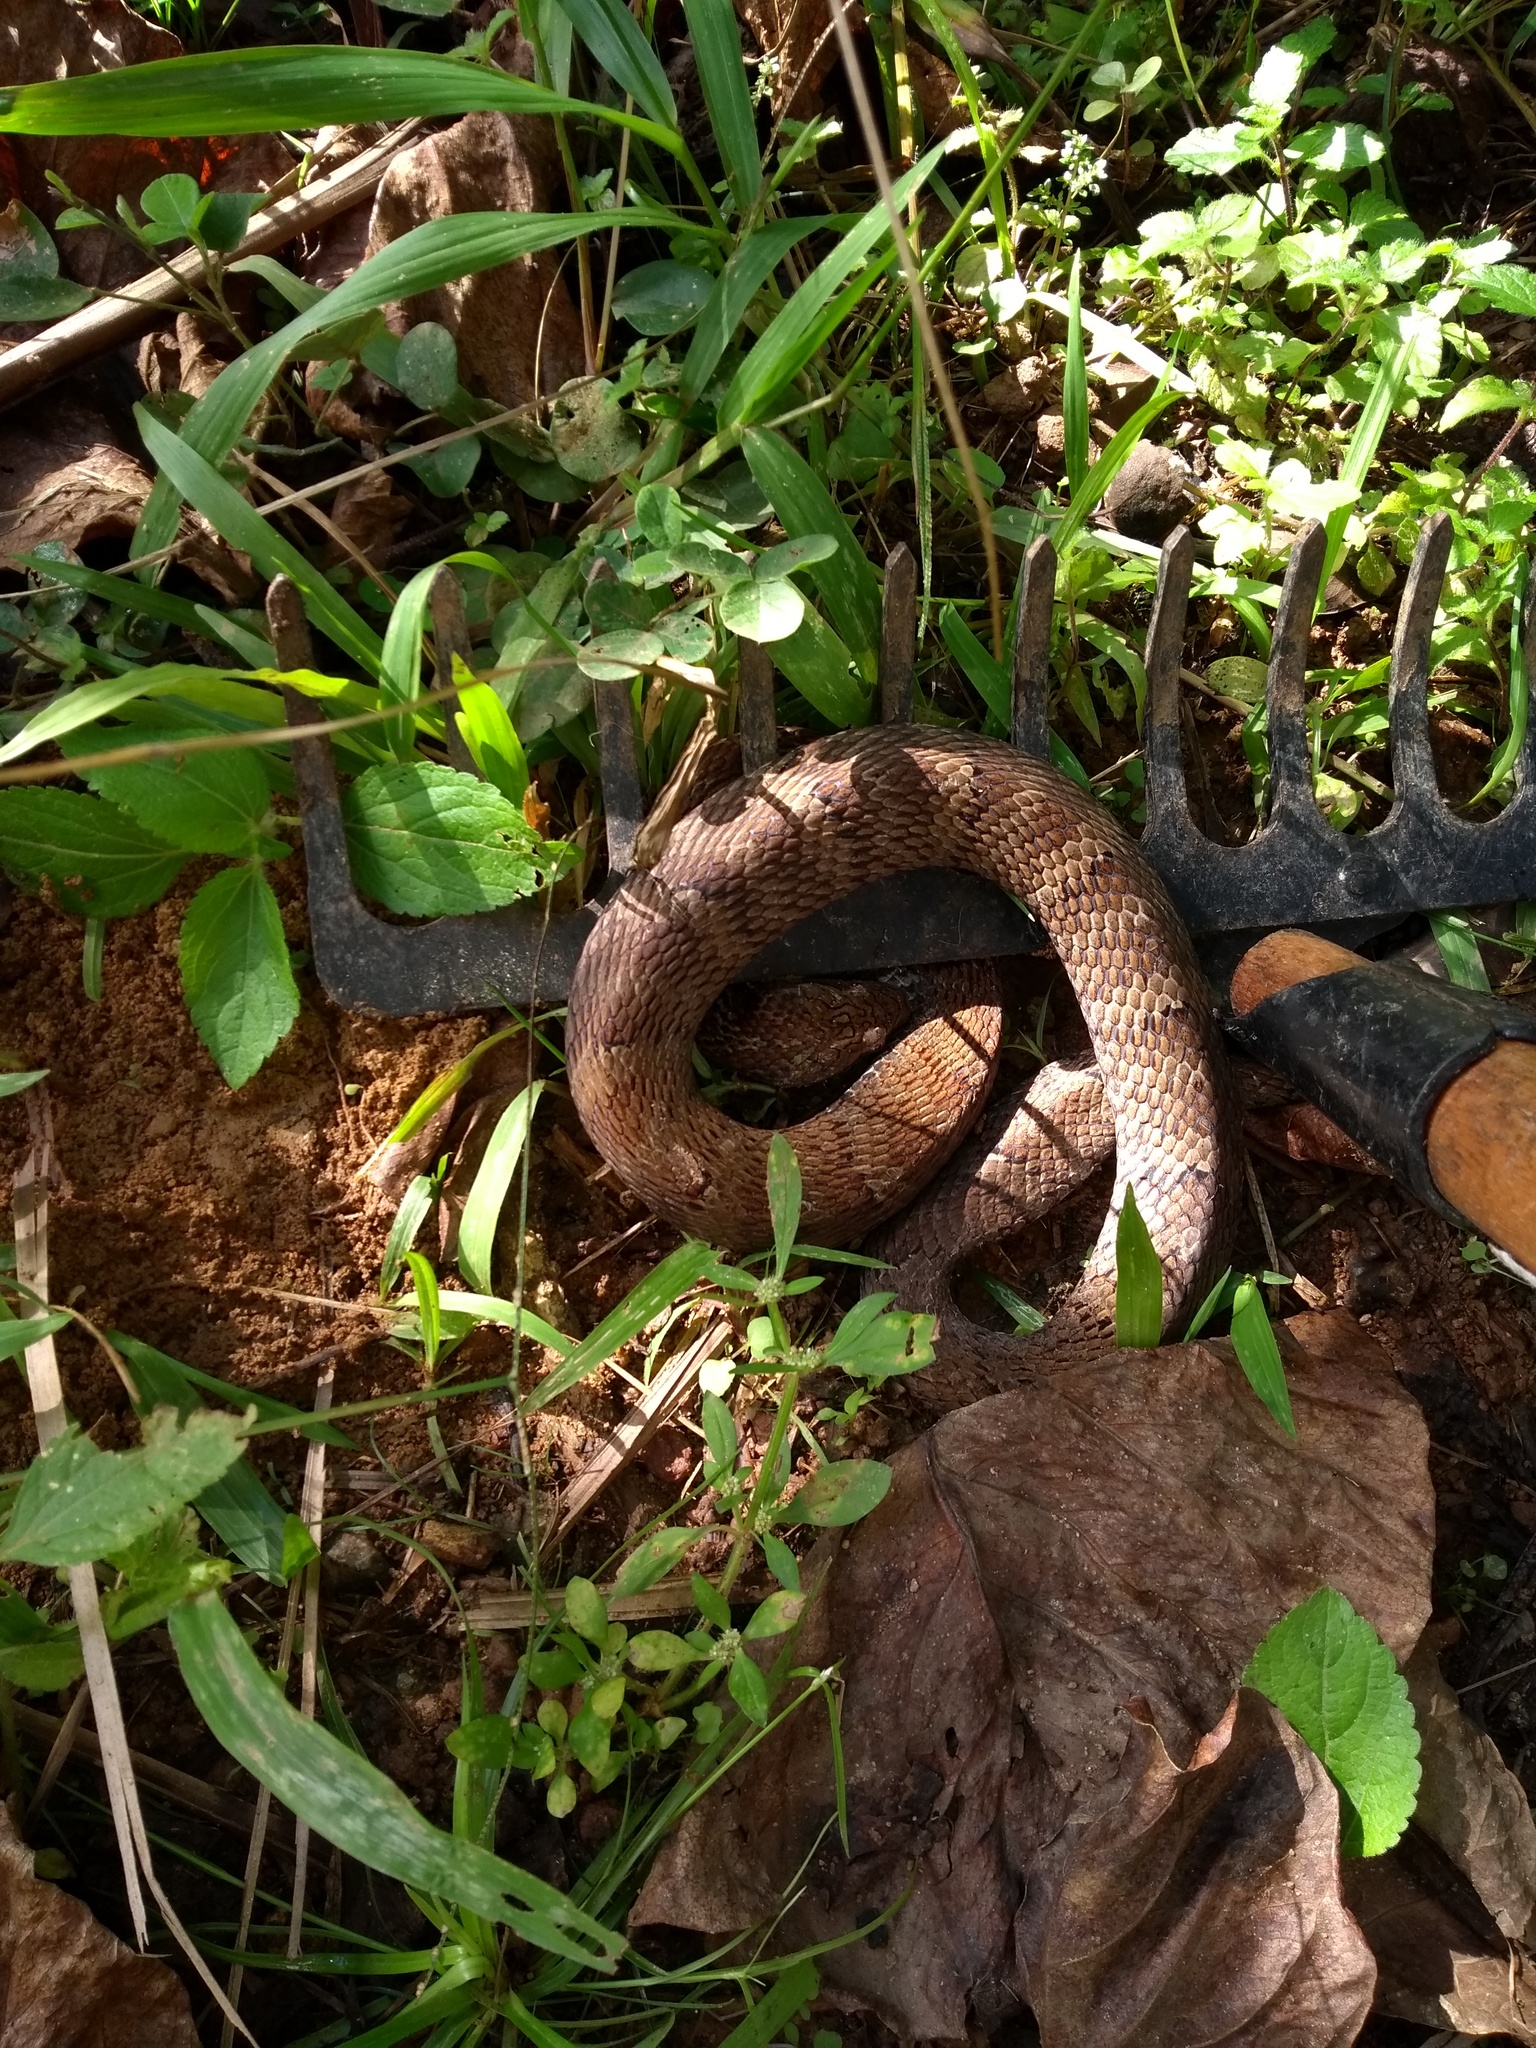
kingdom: Animalia
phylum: Chordata
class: Squamata
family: Colubridae
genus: Xenodon
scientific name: Xenodon neuwiedii
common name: Neuwied's false fer-de-lance
